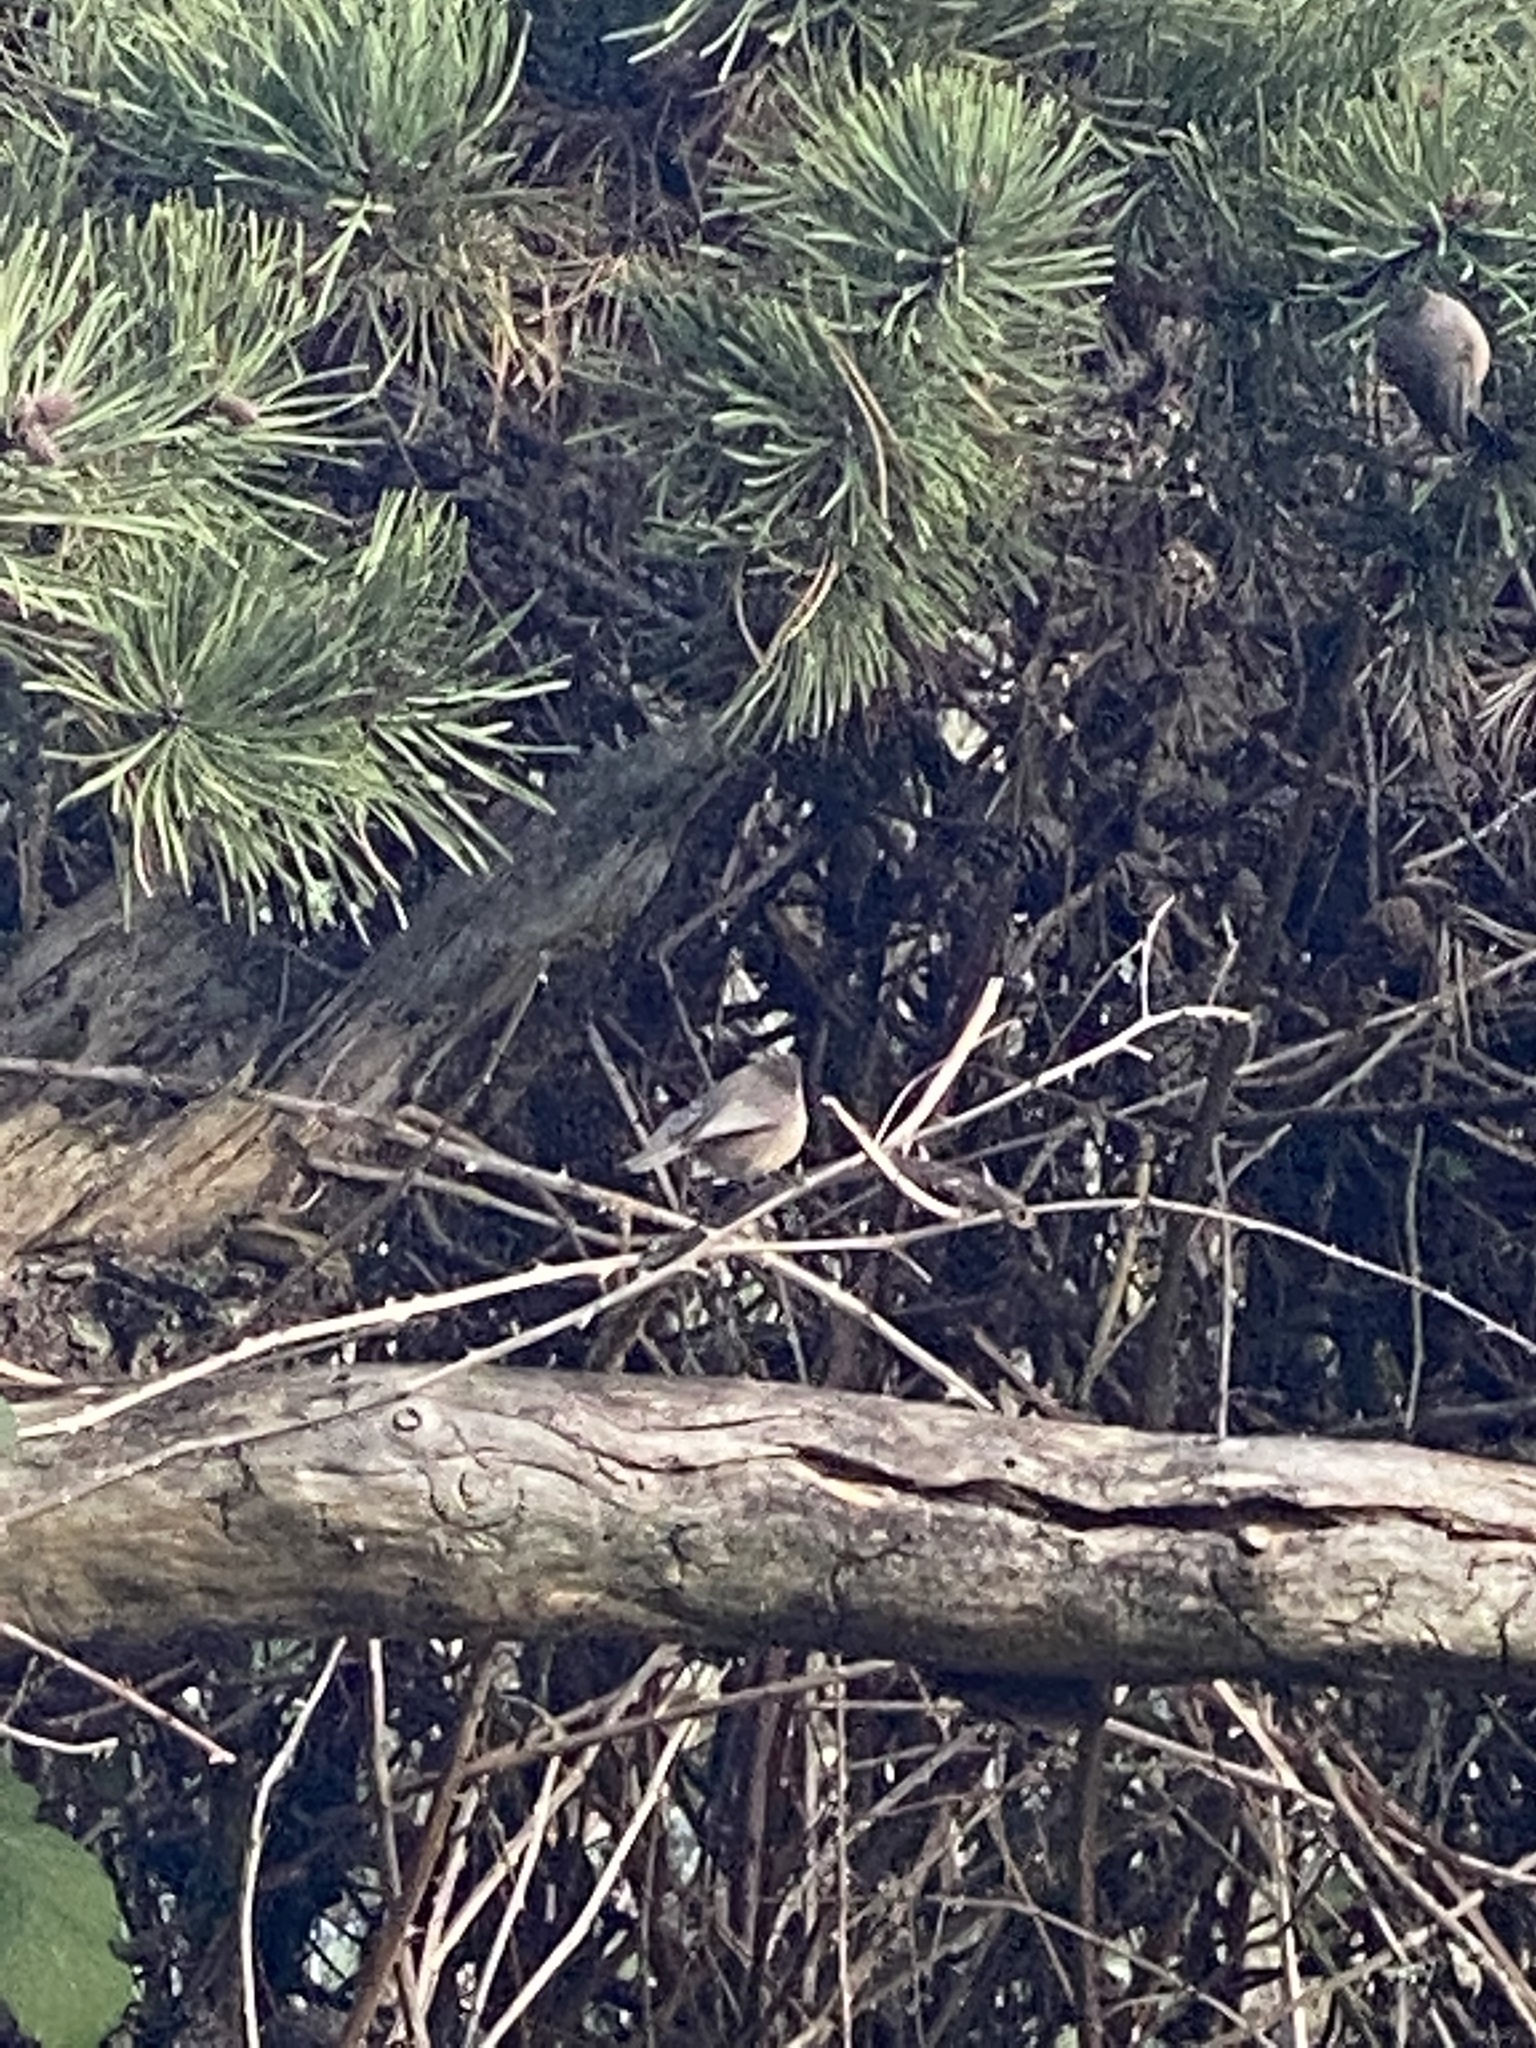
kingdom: Animalia
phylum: Chordata
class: Aves
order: Passeriformes
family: Aegithalidae
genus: Psaltriparus
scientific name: Psaltriparus minimus
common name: American bushtit
